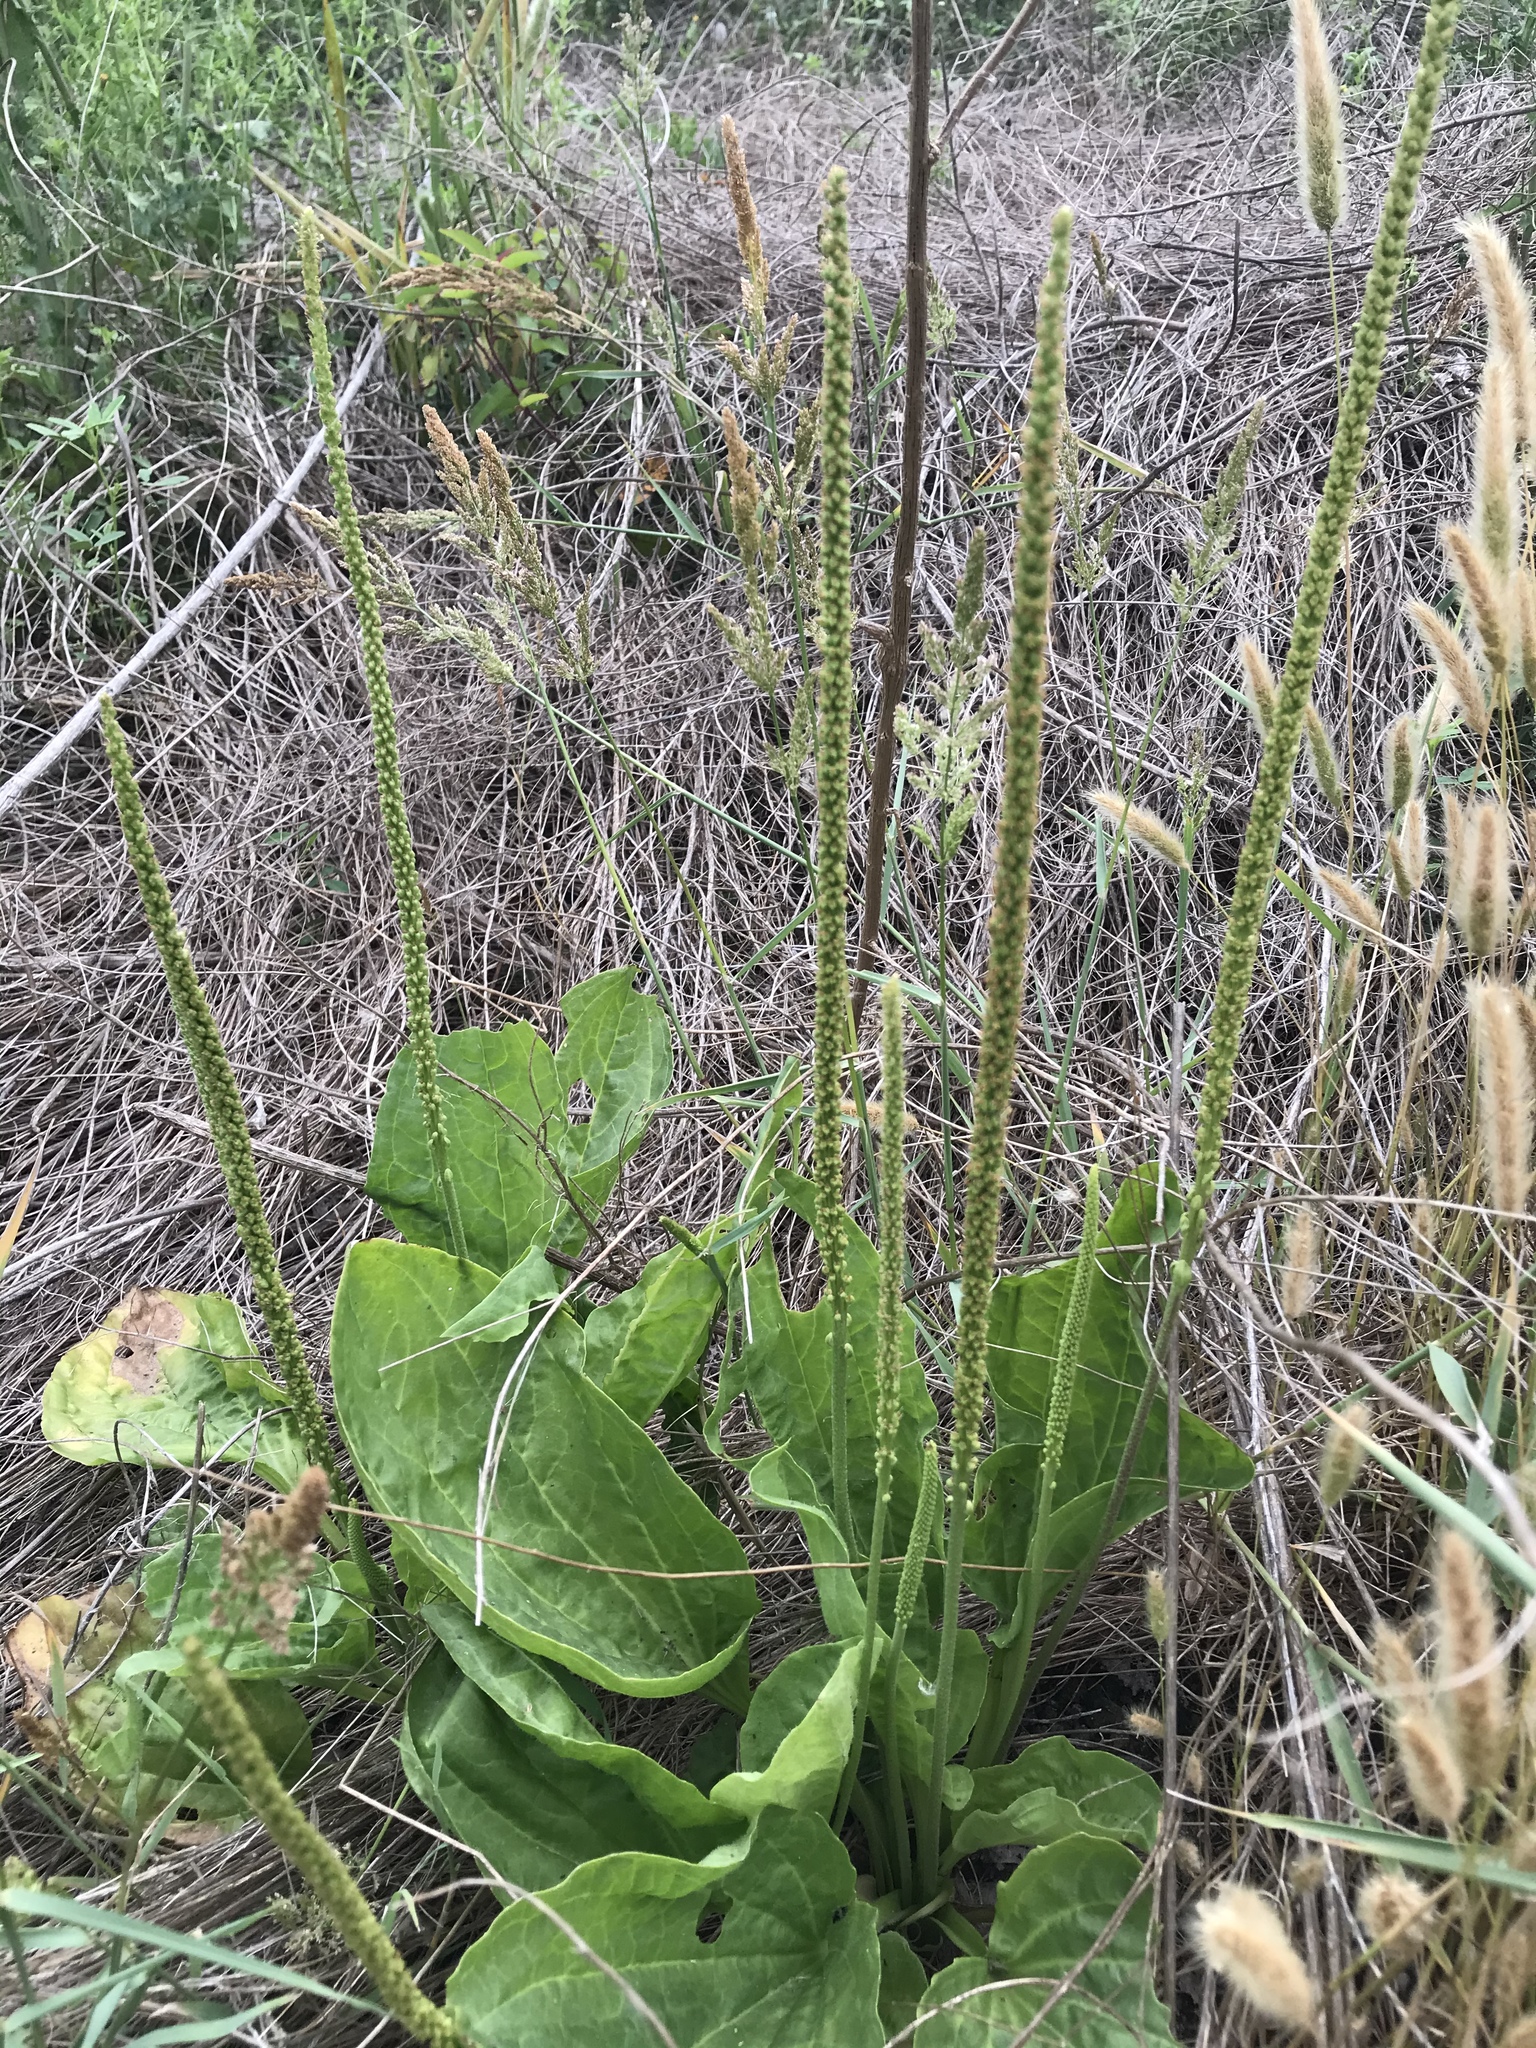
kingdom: Plantae
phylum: Tracheophyta
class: Magnoliopsida
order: Lamiales
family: Plantaginaceae
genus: Plantago
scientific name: Plantago major
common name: Common plantain
